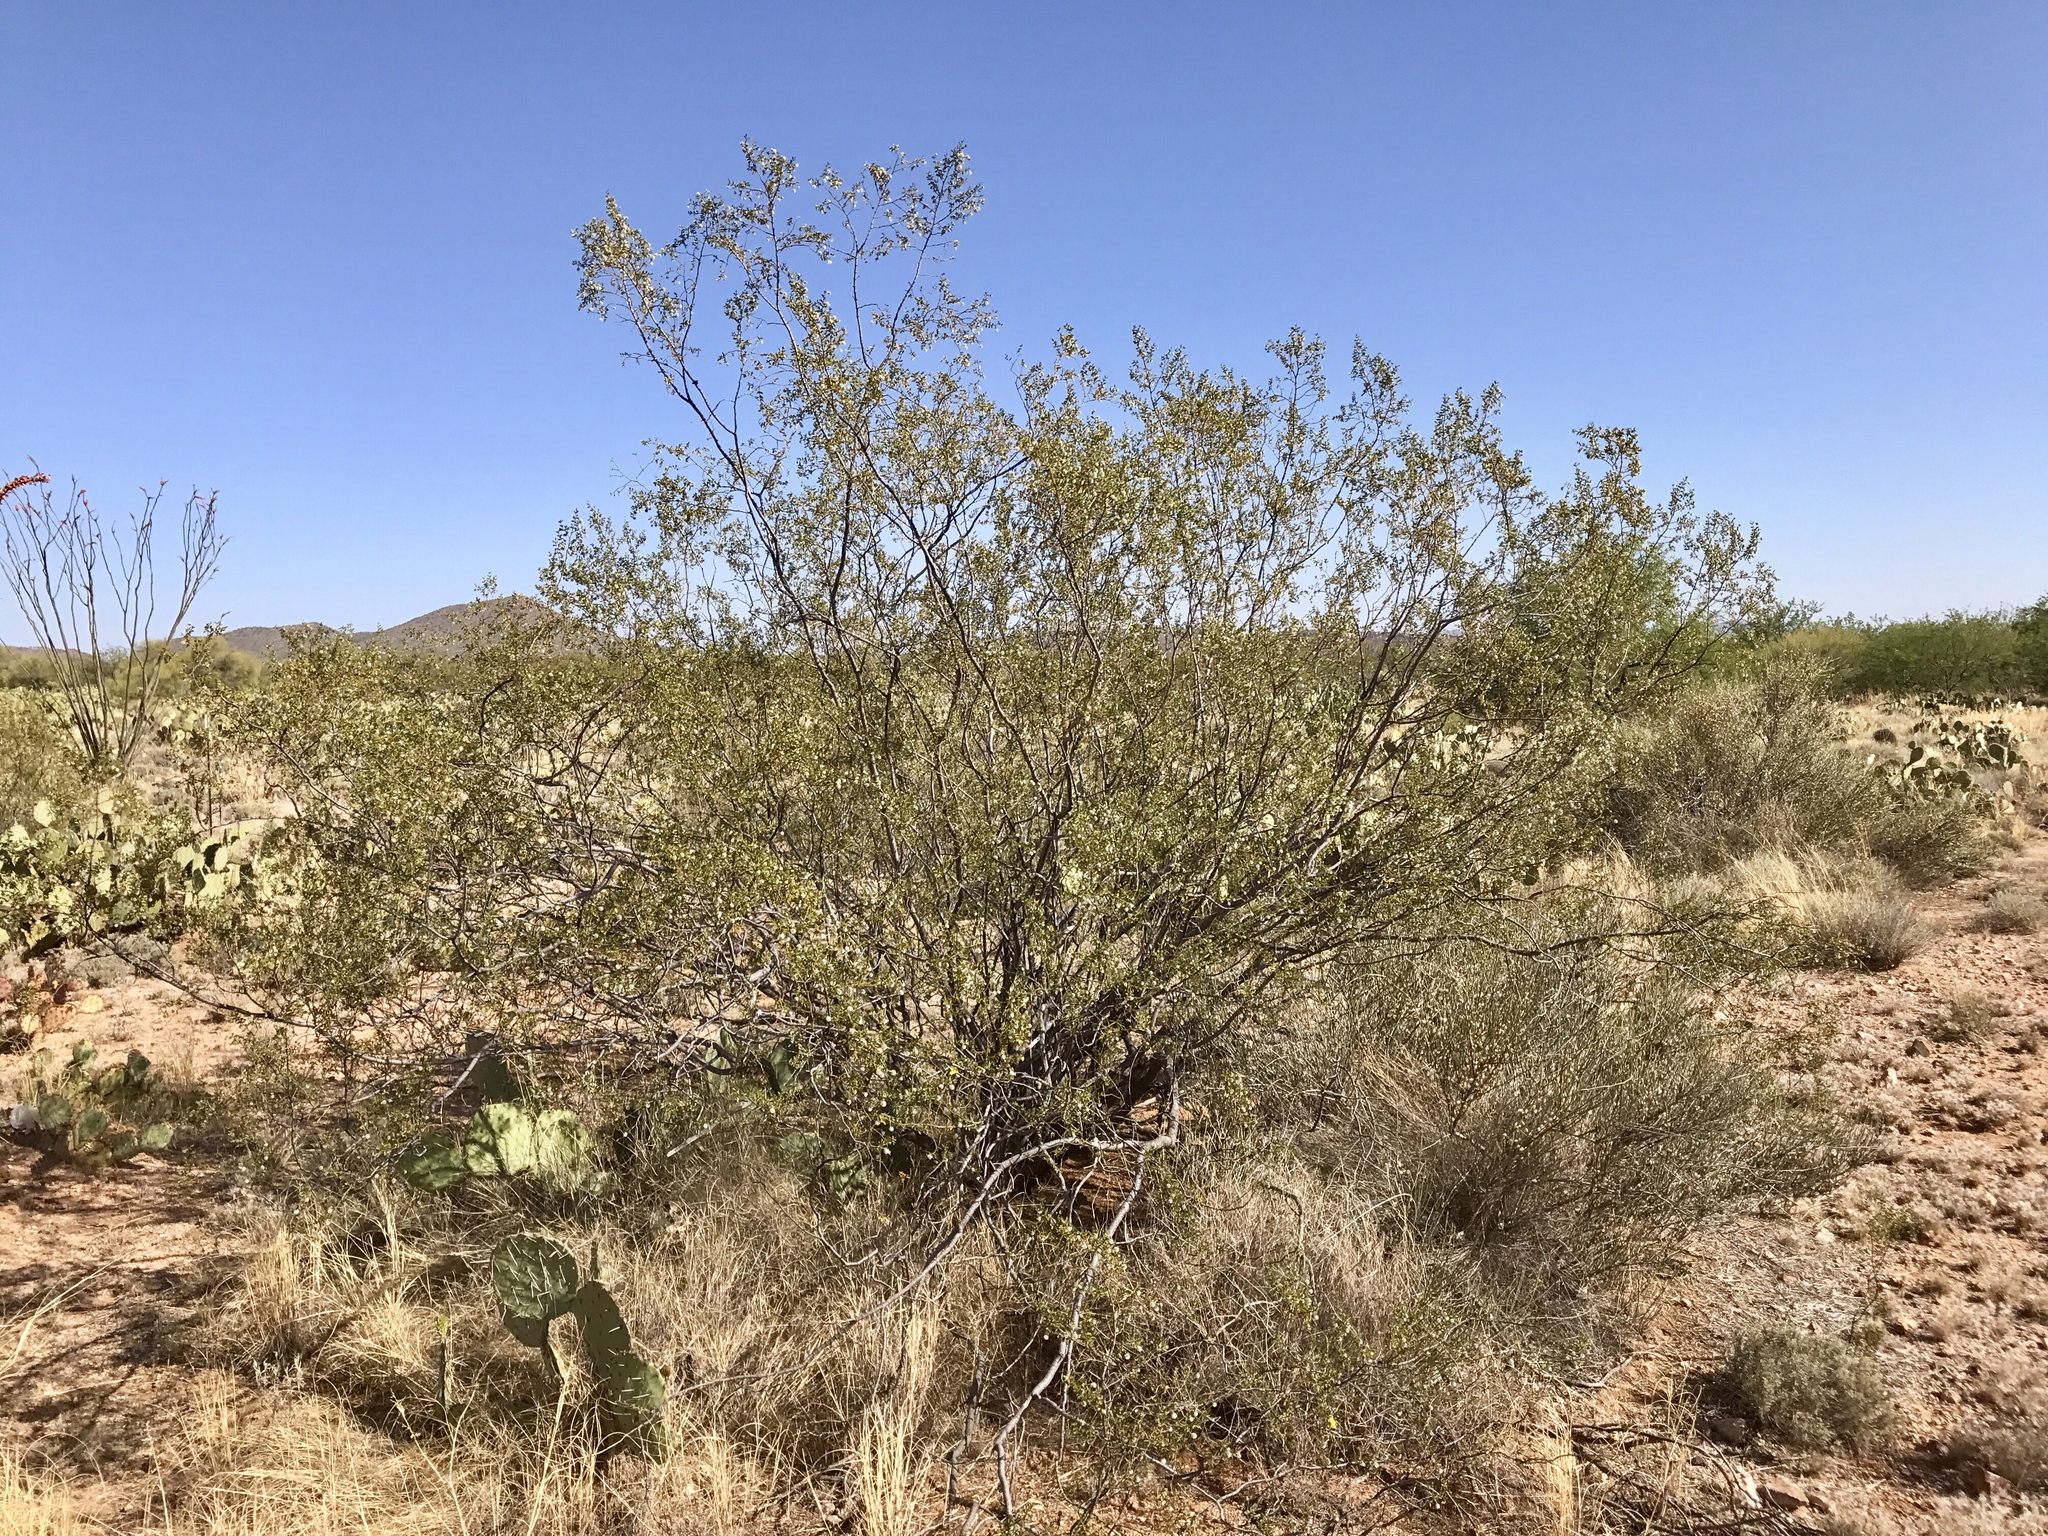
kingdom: Plantae
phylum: Tracheophyta
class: Magnoliopsida
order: Zygophyllales
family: Zygophyllaceae
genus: Larrea
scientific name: Larrea tridentata
